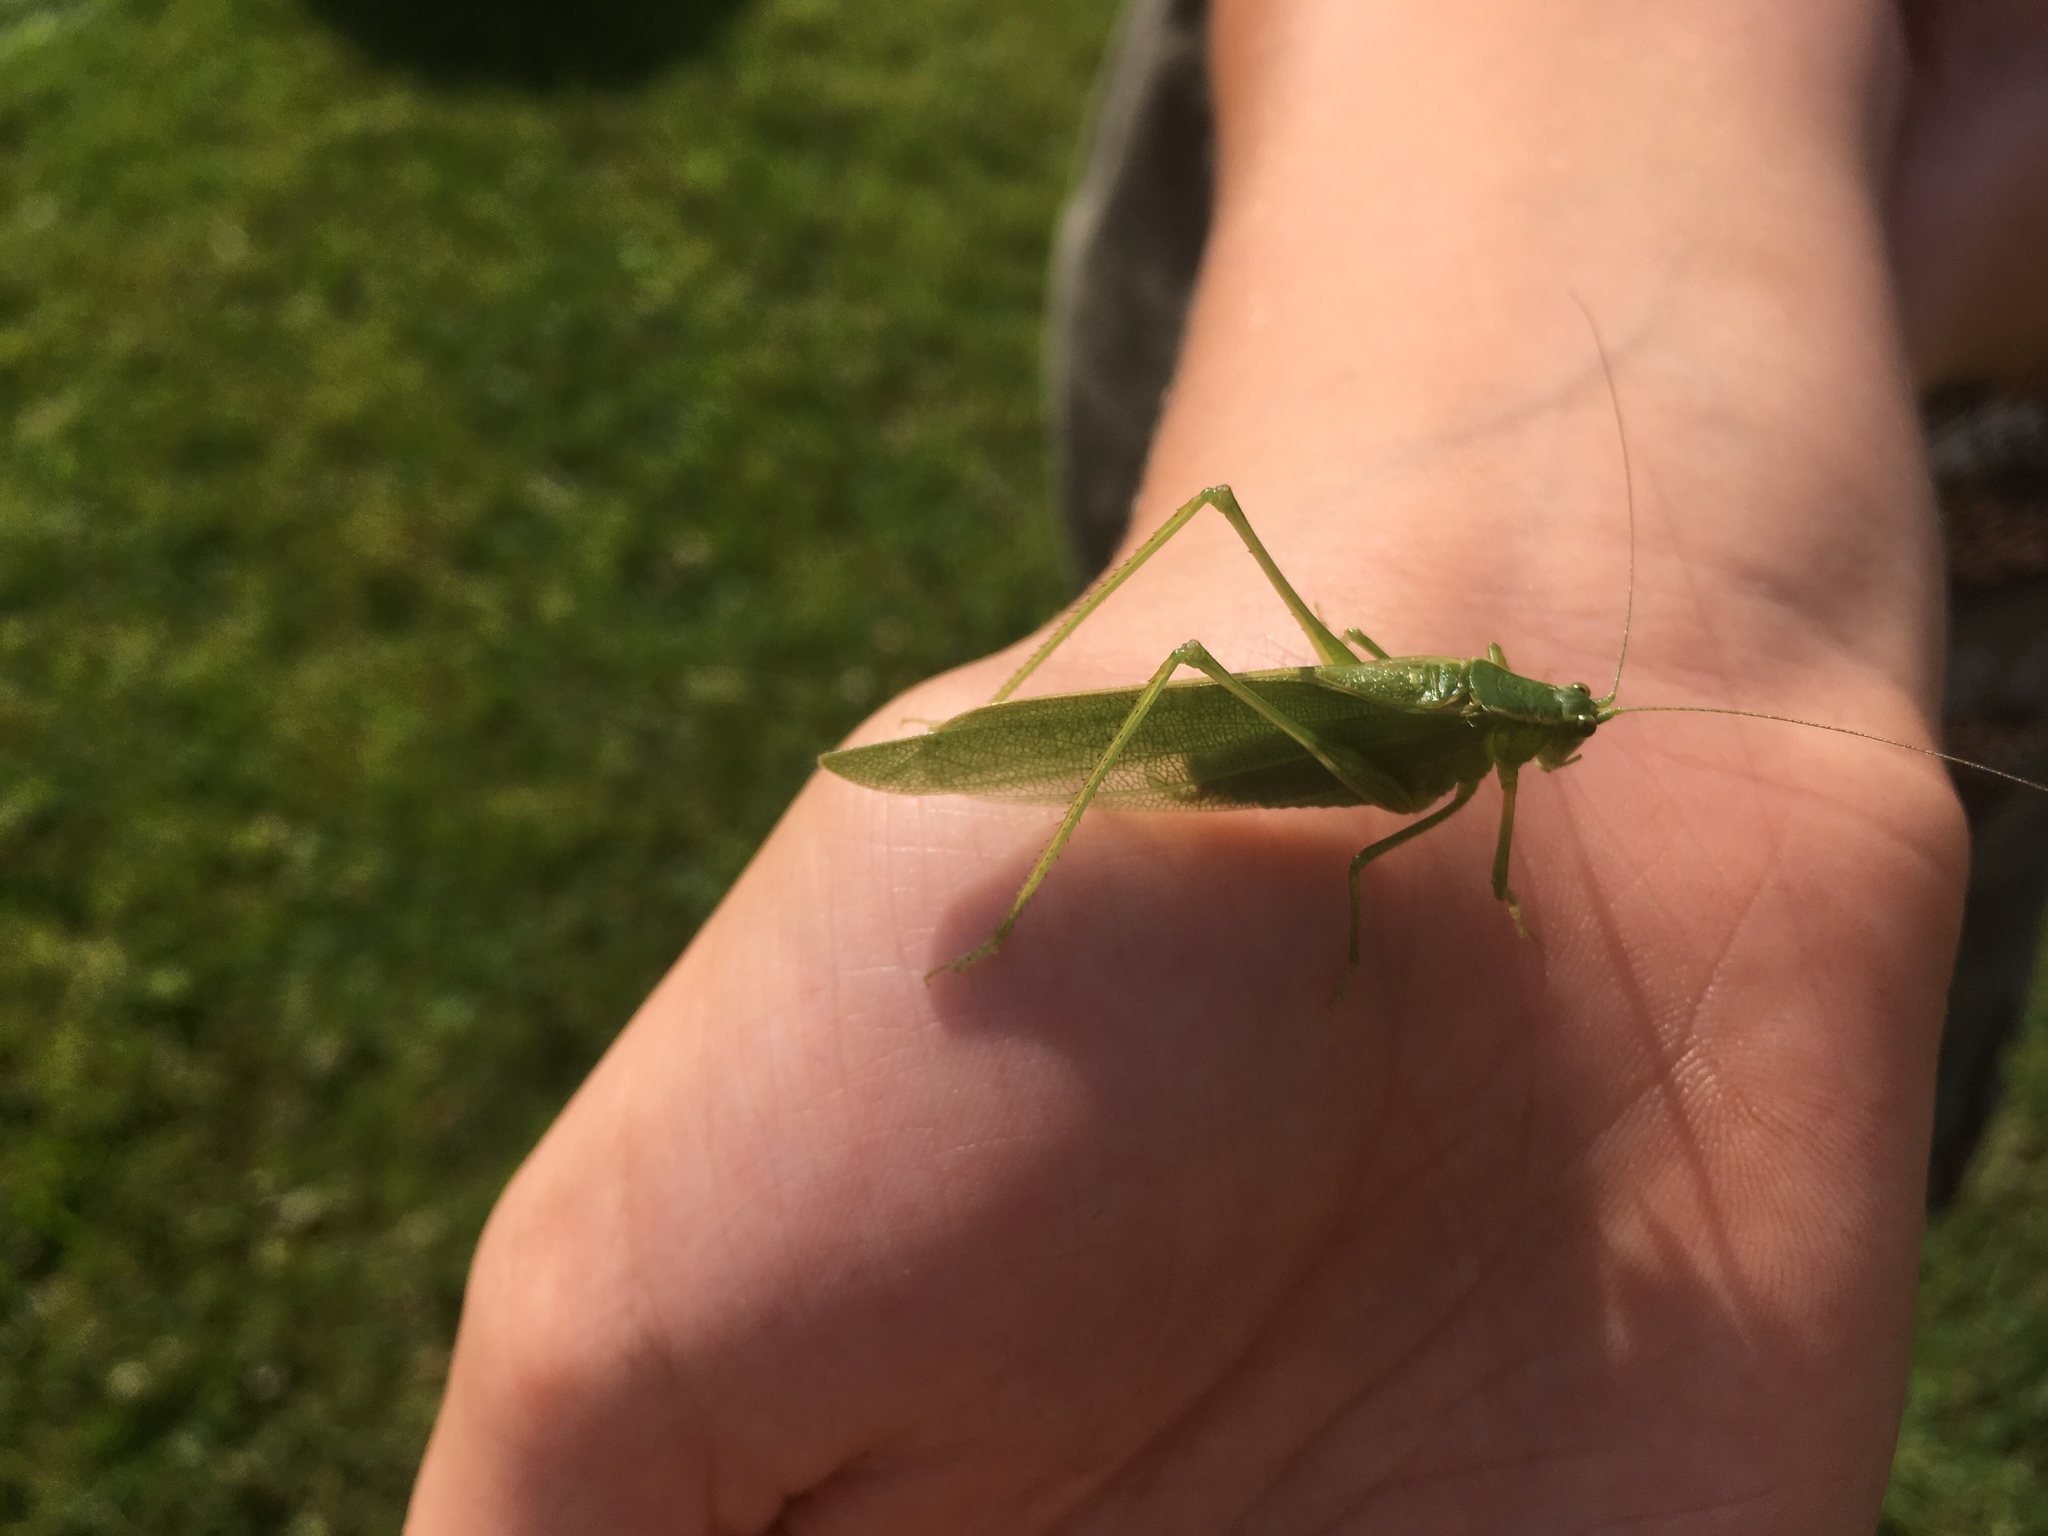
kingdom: Animalia
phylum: Arthropoda
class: Insecta
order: Orthoptera
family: Tettigoniidae
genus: Scudderia
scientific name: Scudderia septentrionalis
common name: Northern bush-katydid
